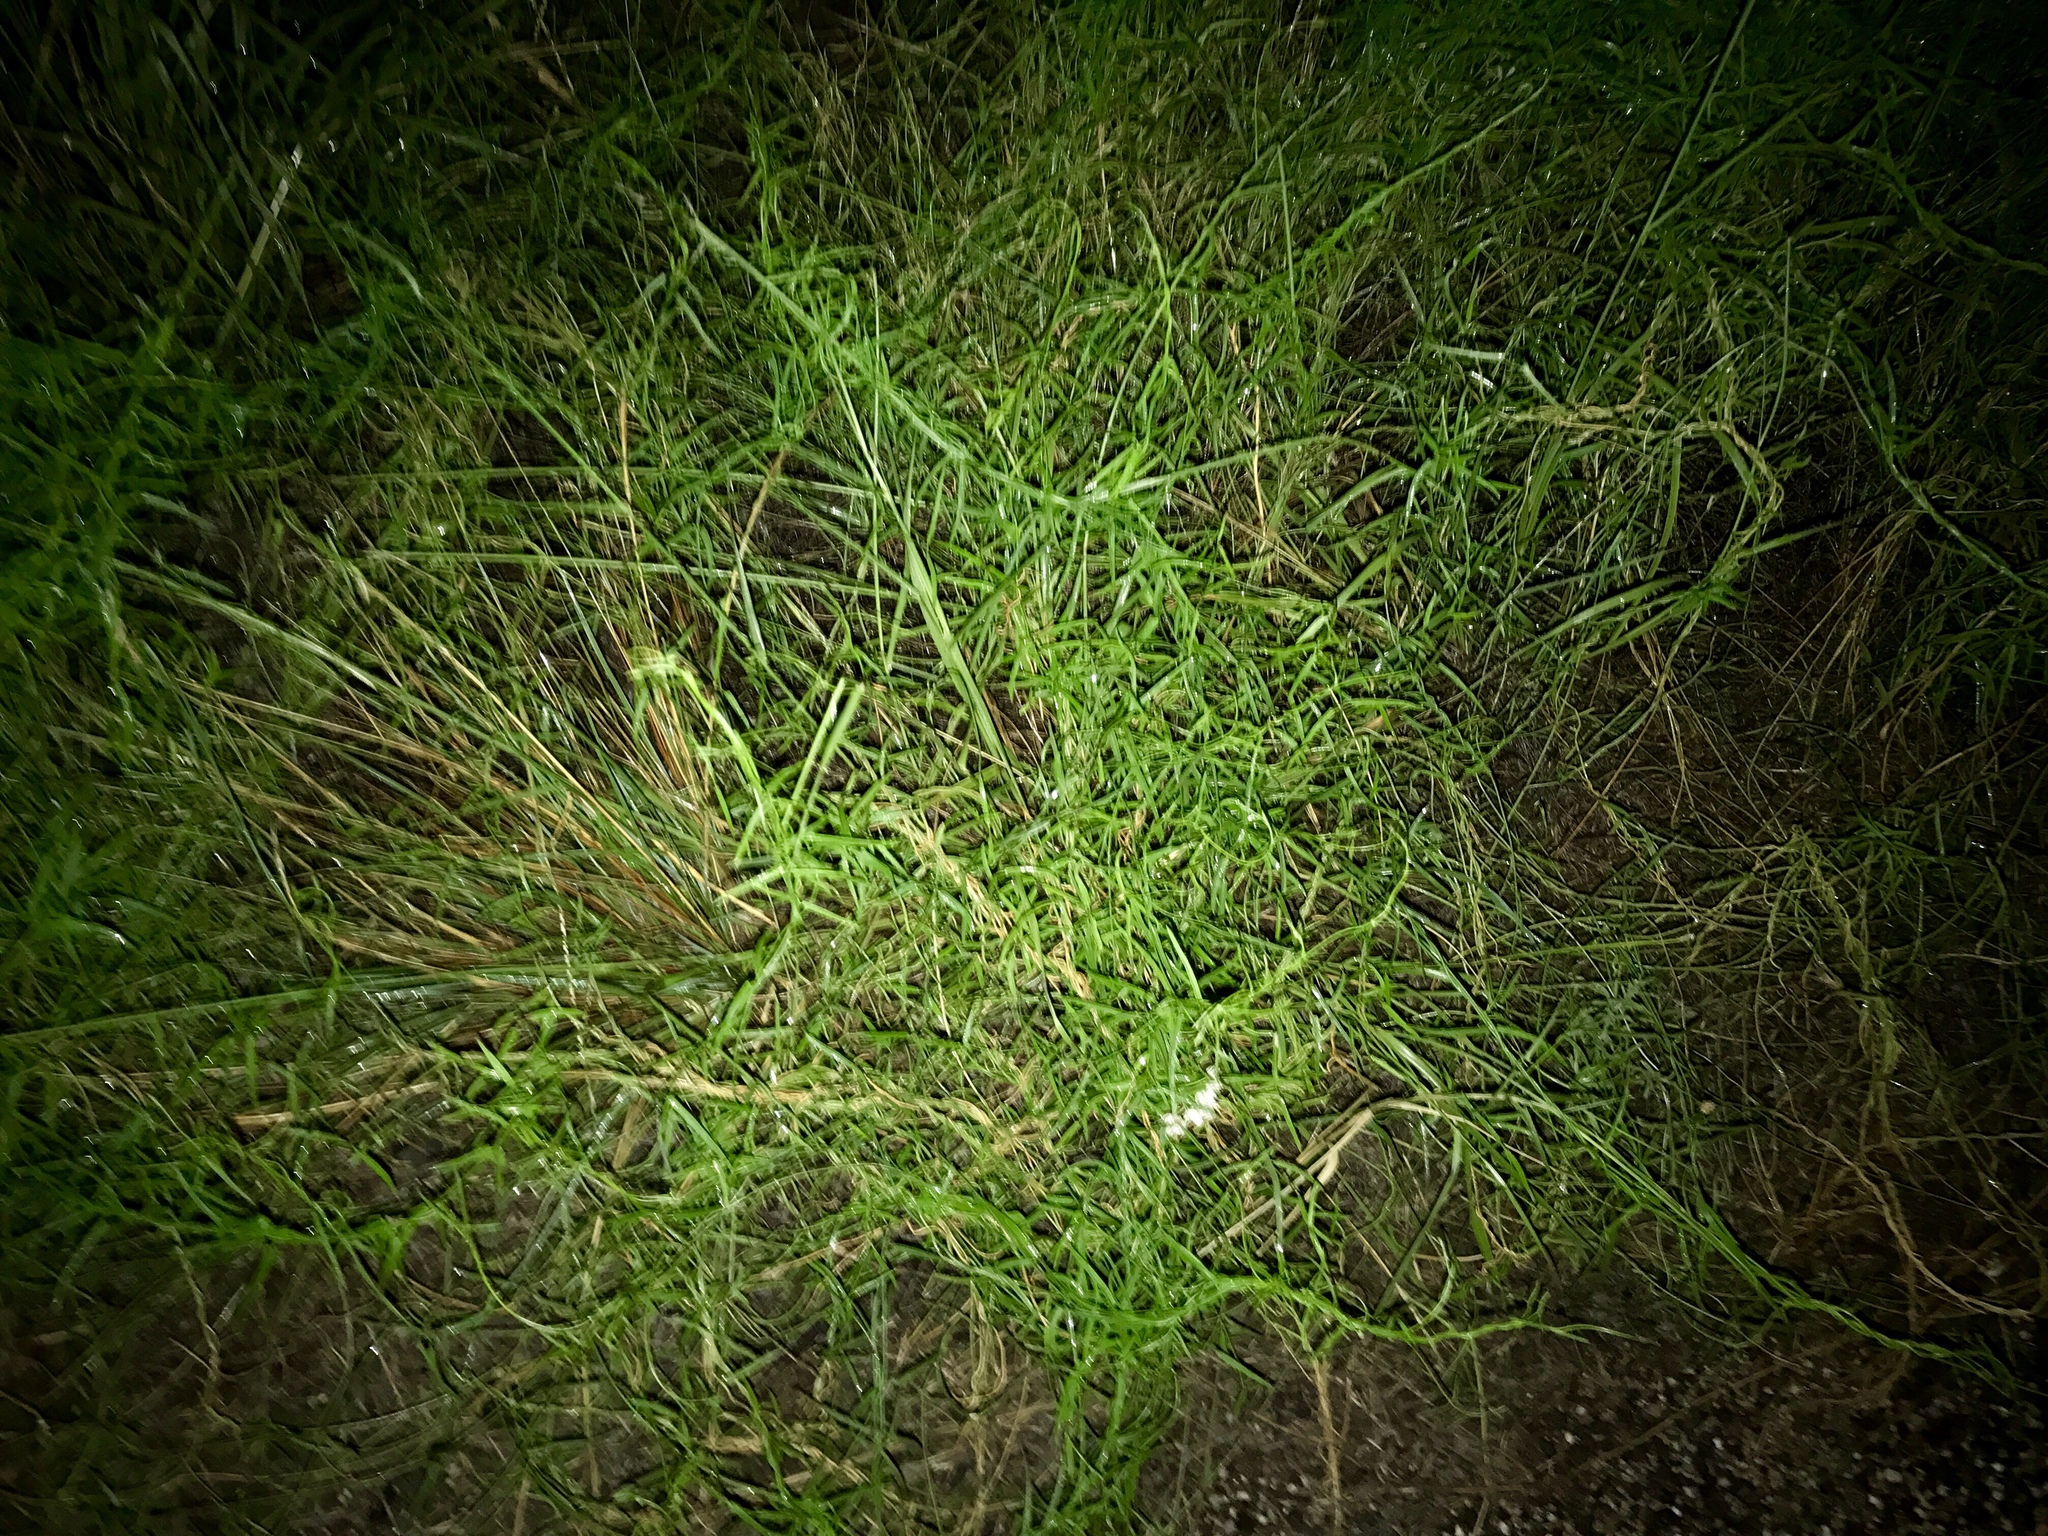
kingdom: Plantae
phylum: Tracheophyta
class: Magnoliopsida
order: Gentianales
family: Apocynaceae
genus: Funastrum
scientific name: Funastrum heterophyllum
